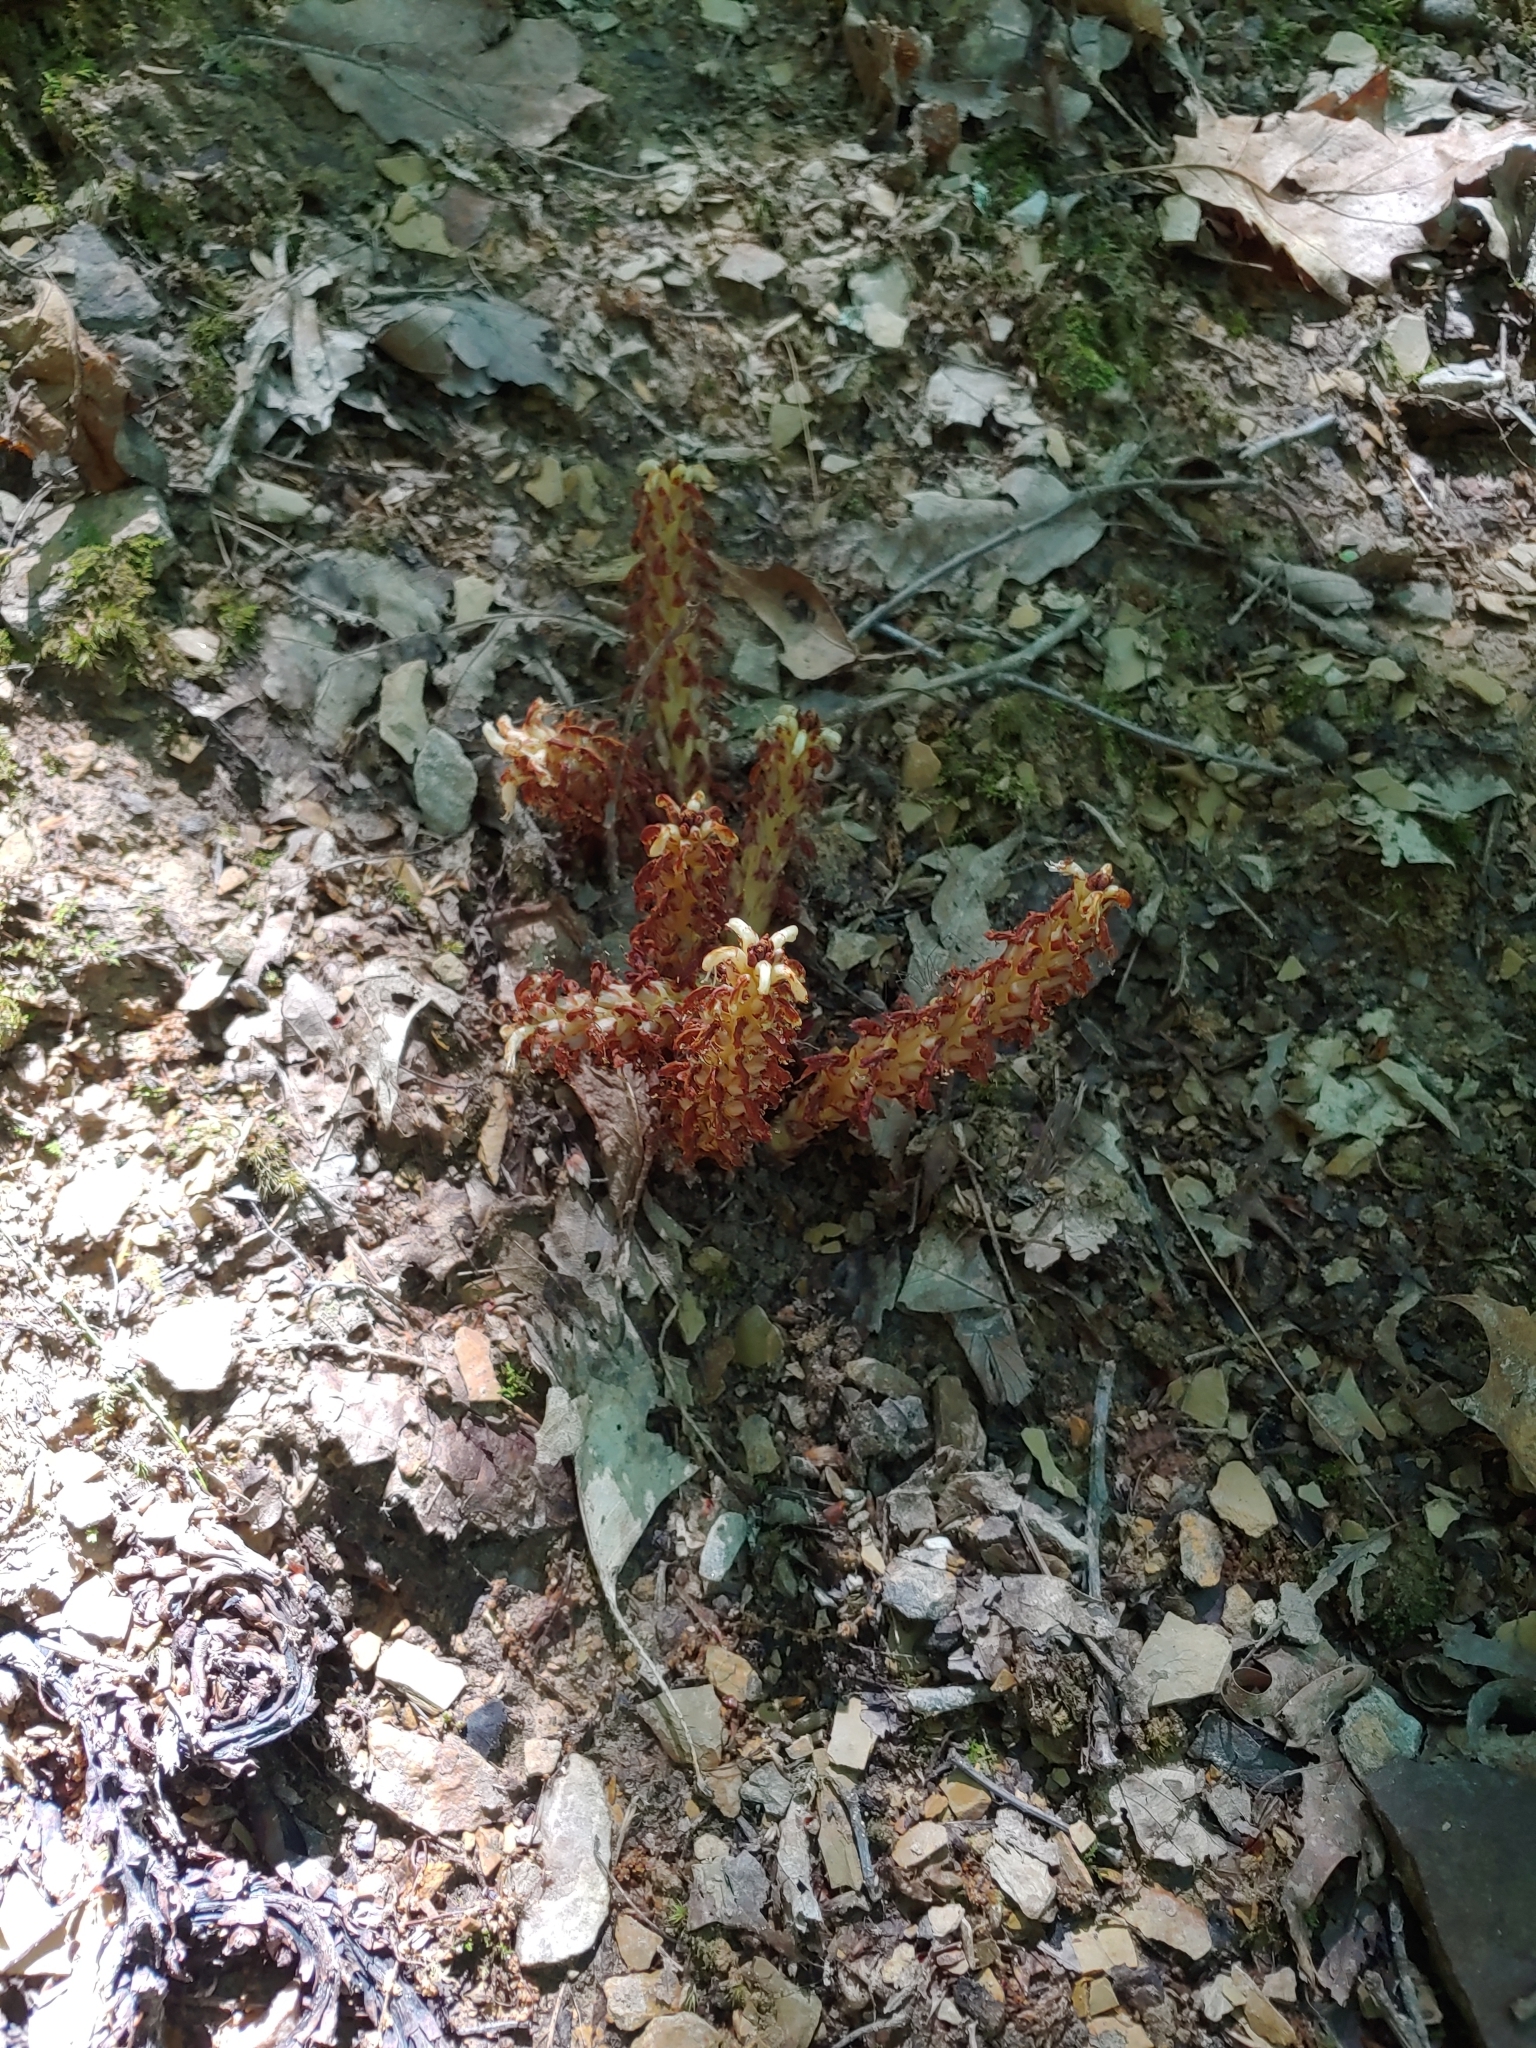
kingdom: Plantae
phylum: Tracheophyta
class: Magnoliopsida
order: Lamiales
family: Orobanchaceae
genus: Conopholis
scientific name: Conopholis americana
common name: American cancer-root
